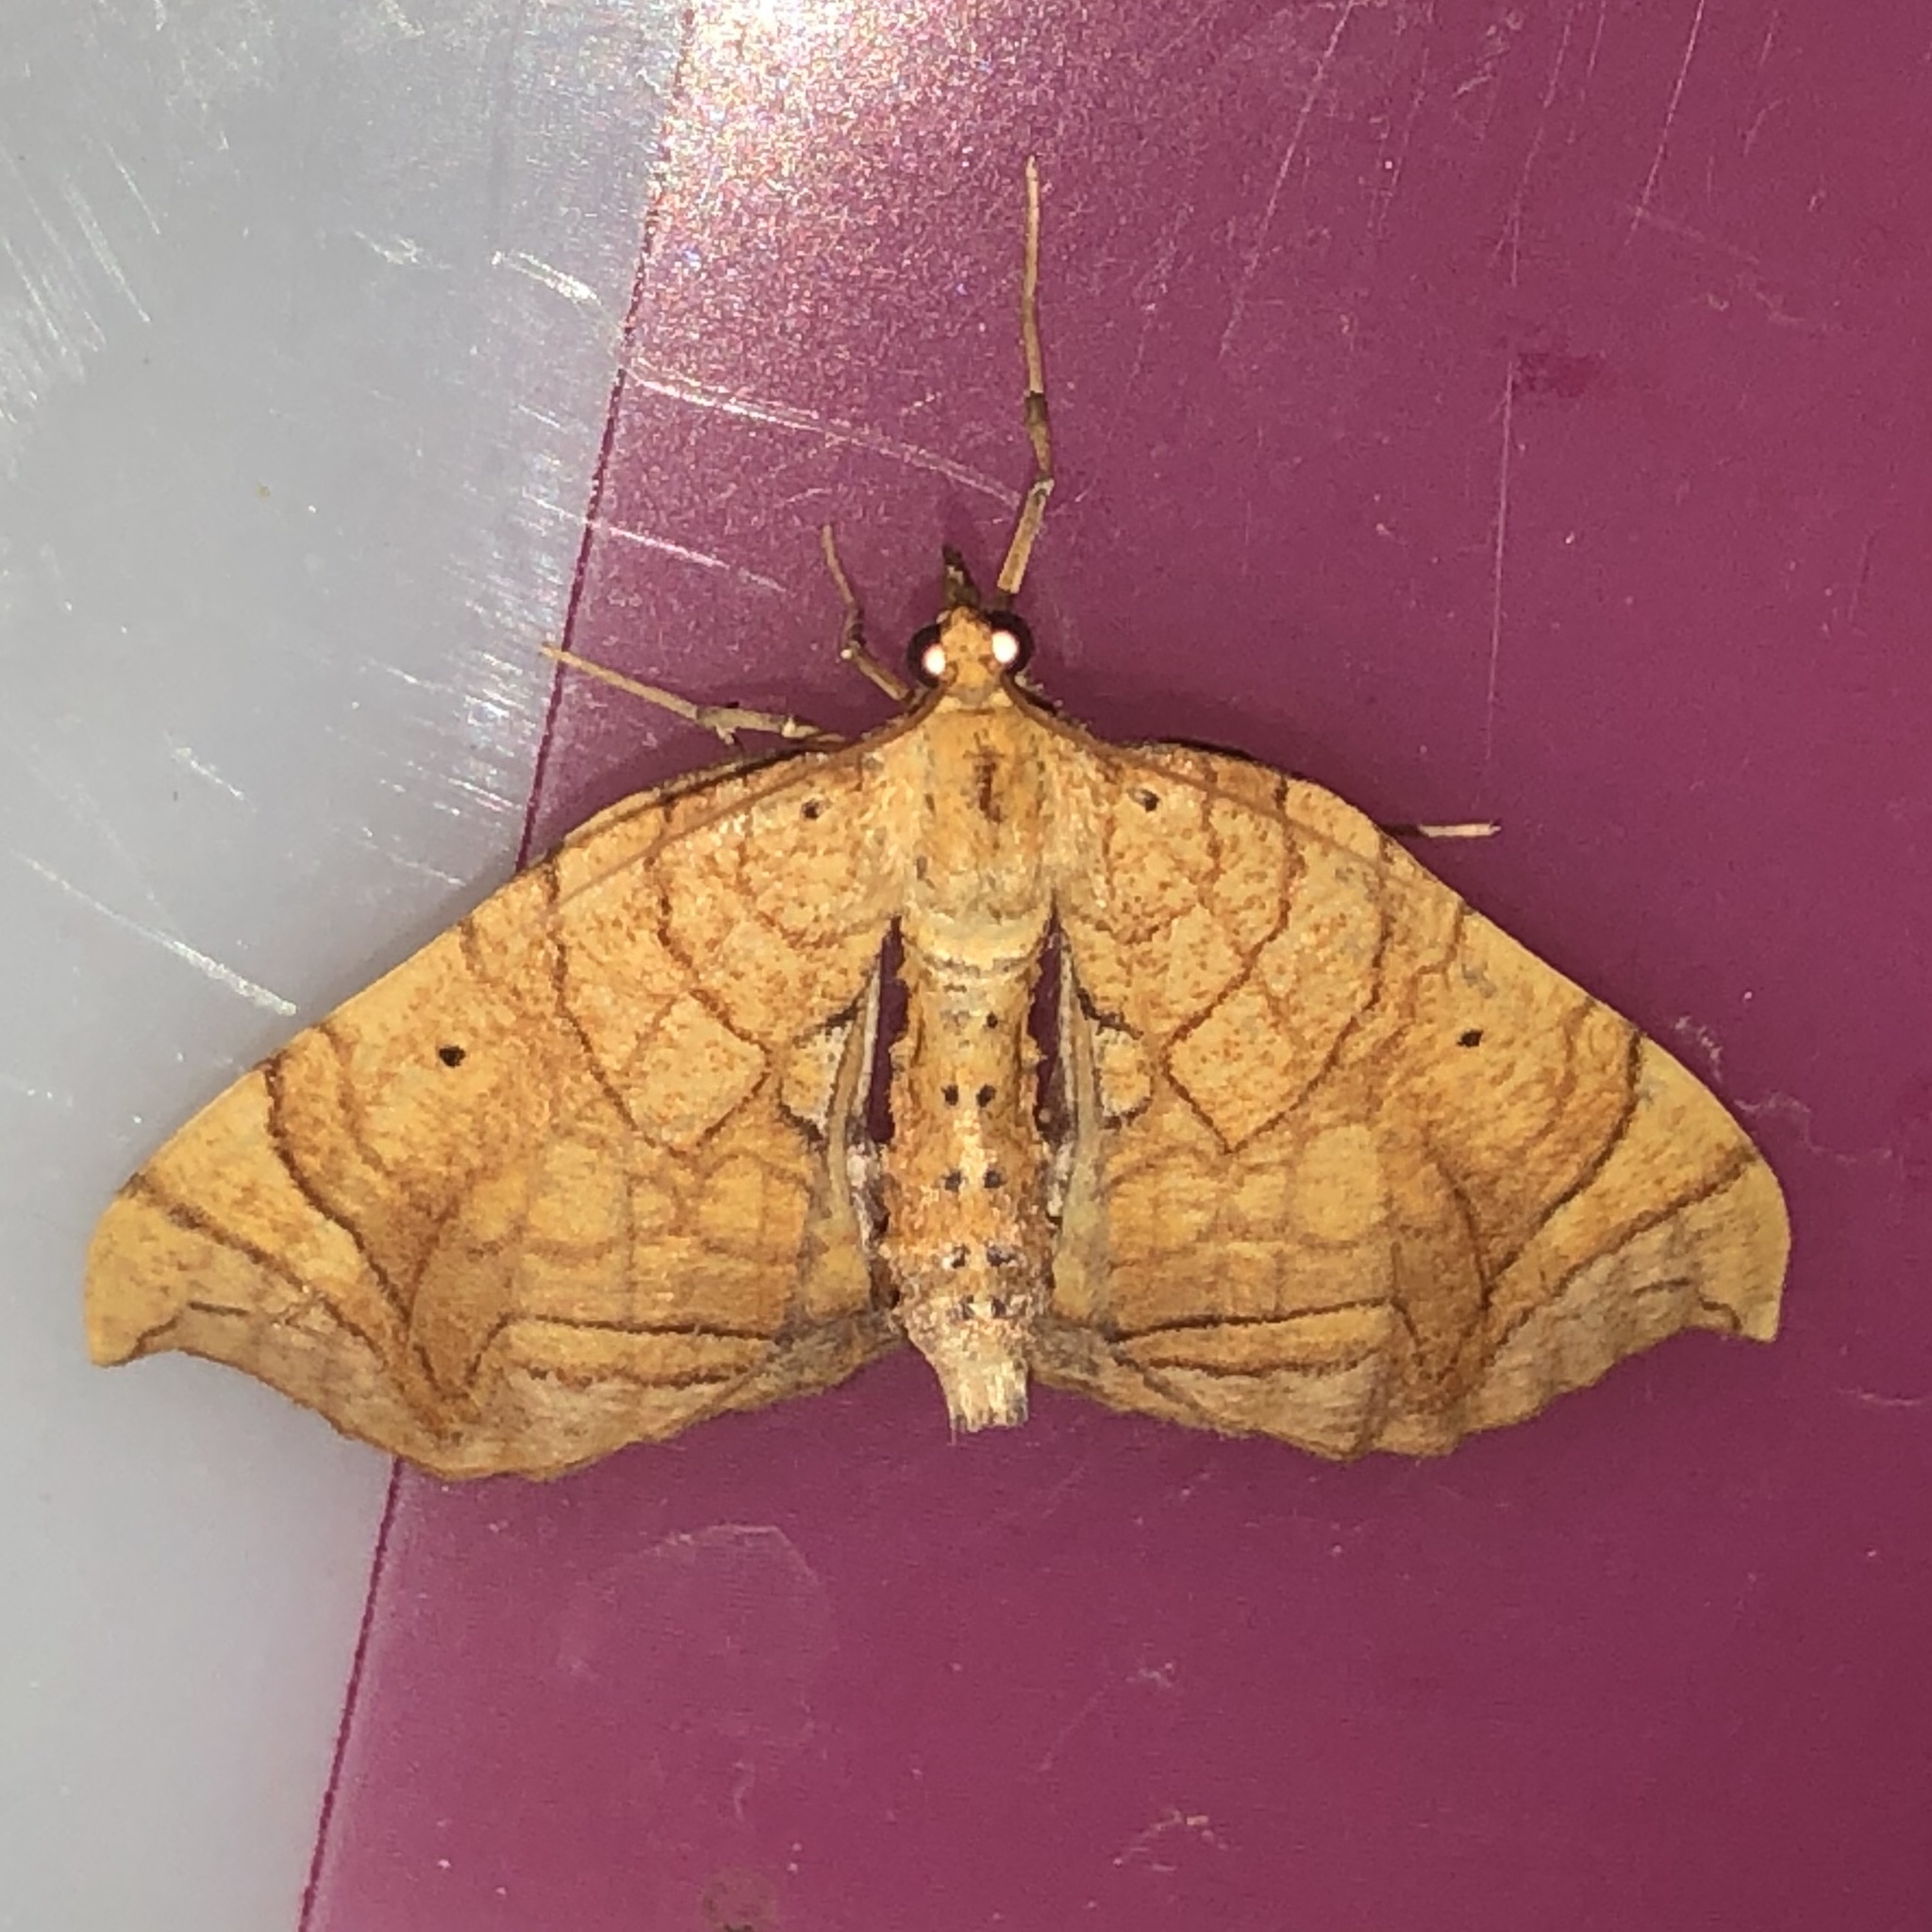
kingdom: Animalia
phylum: Arthropoda
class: Insecta
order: Lepidoptera
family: Geometridae
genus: Eulithis
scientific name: Eulithis
